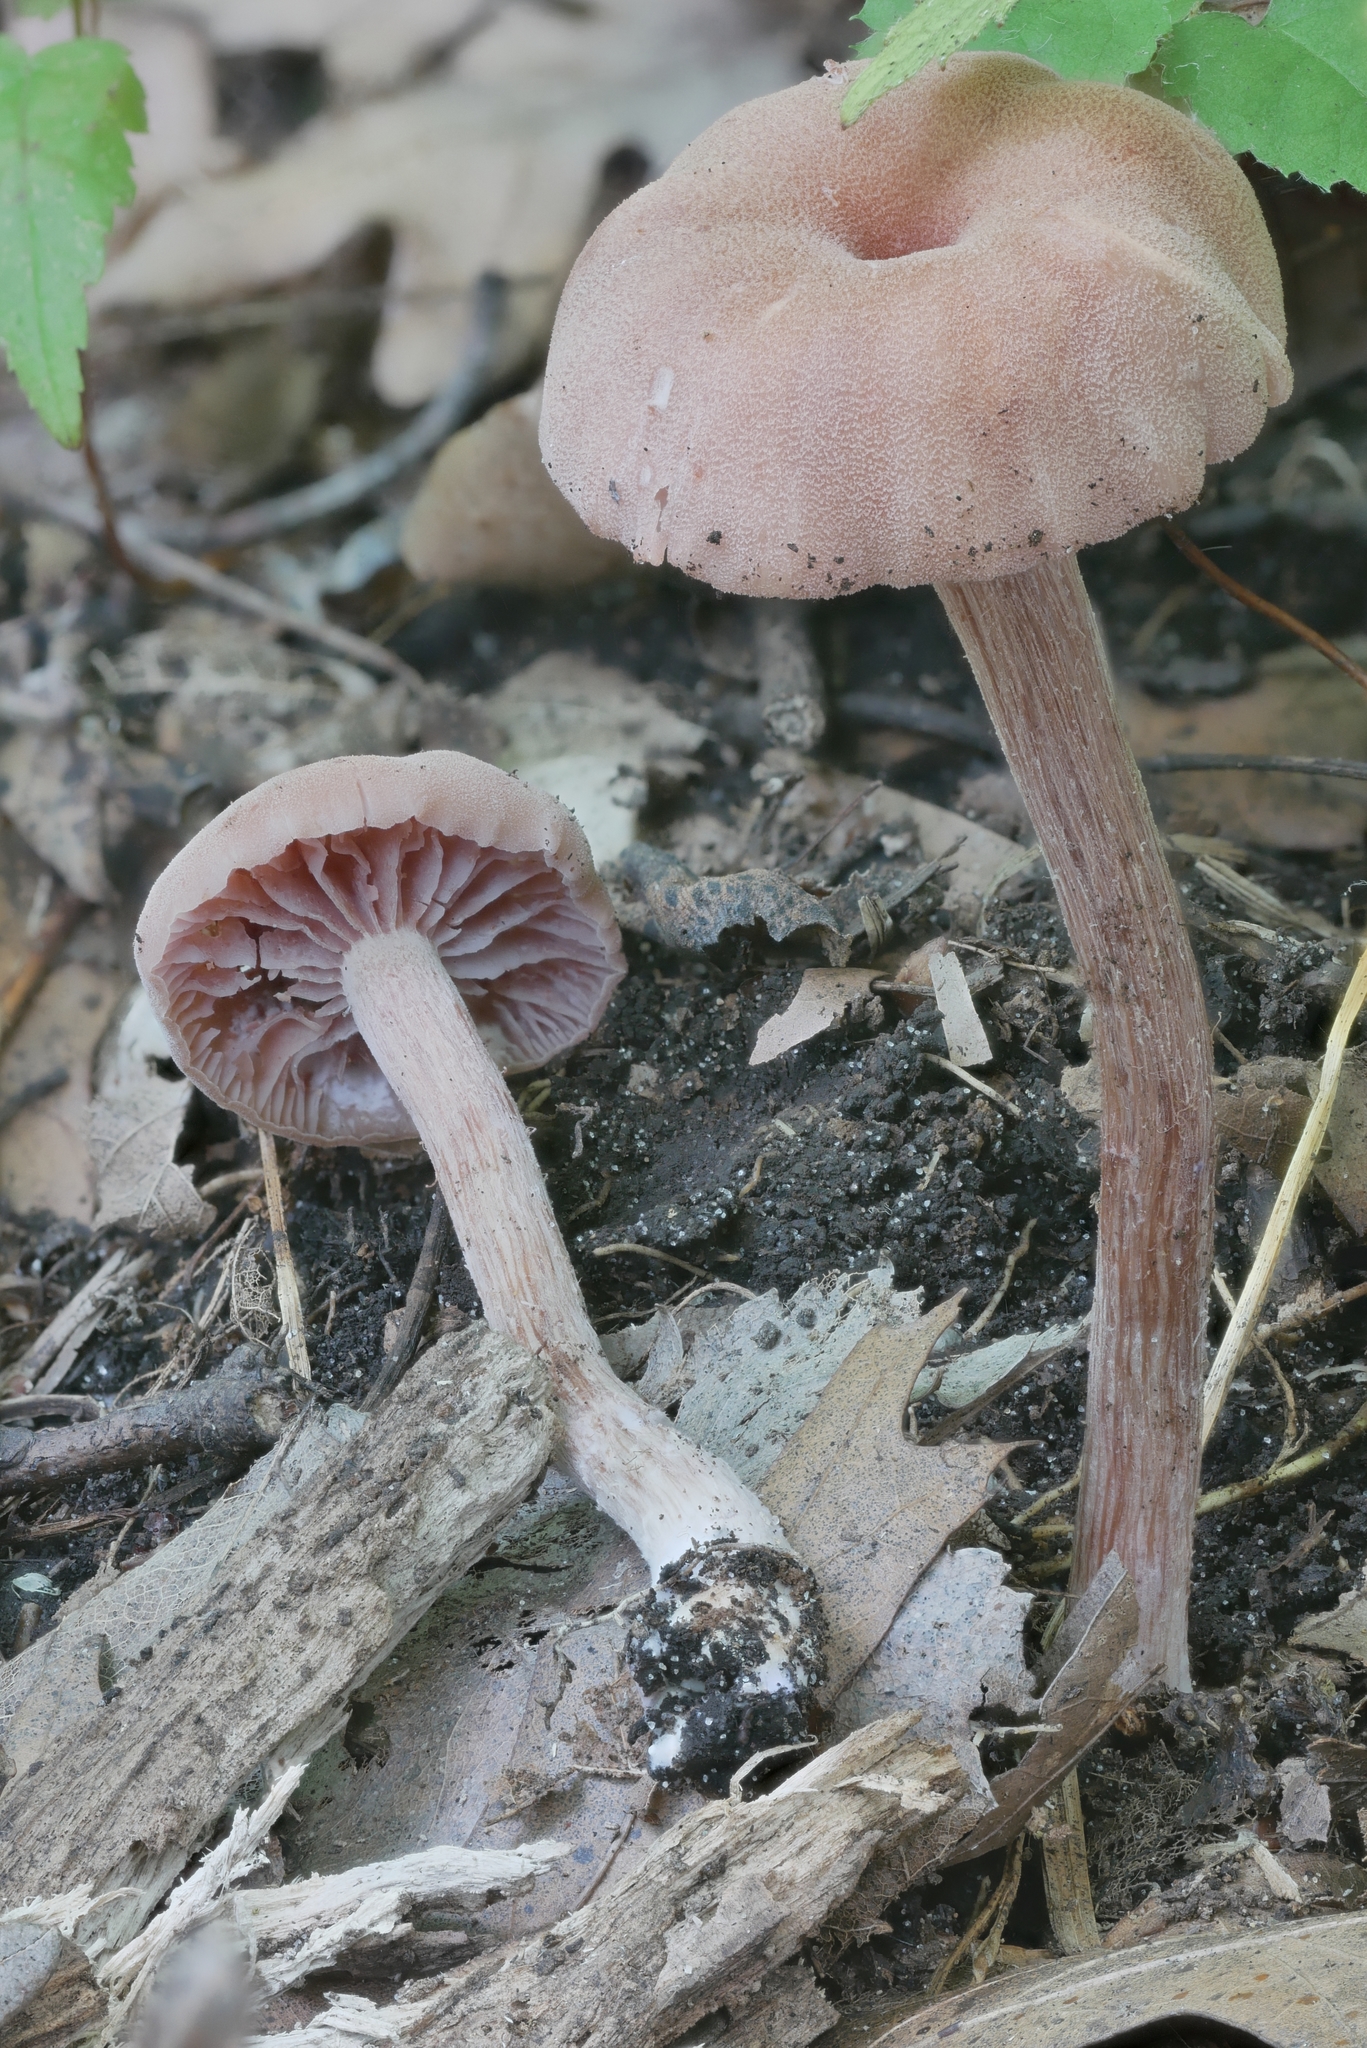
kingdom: Fungi
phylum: Basidiomycota
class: Agaricomycetes
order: Agaricales
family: Hydnangiaceae
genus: Laccaria
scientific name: Laccaria trichodermophora
